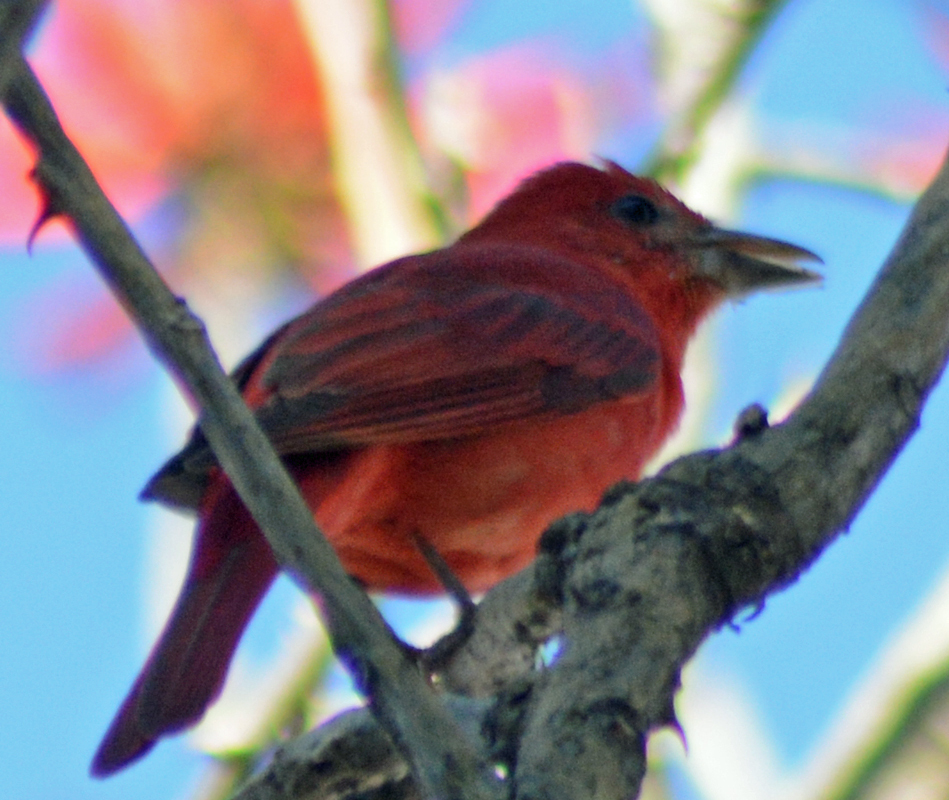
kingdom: Animalia
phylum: Chordata
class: Aves
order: Passeriformes
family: Cardinalidae
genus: Piranga
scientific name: Piranga rubra
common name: Summer tanager
